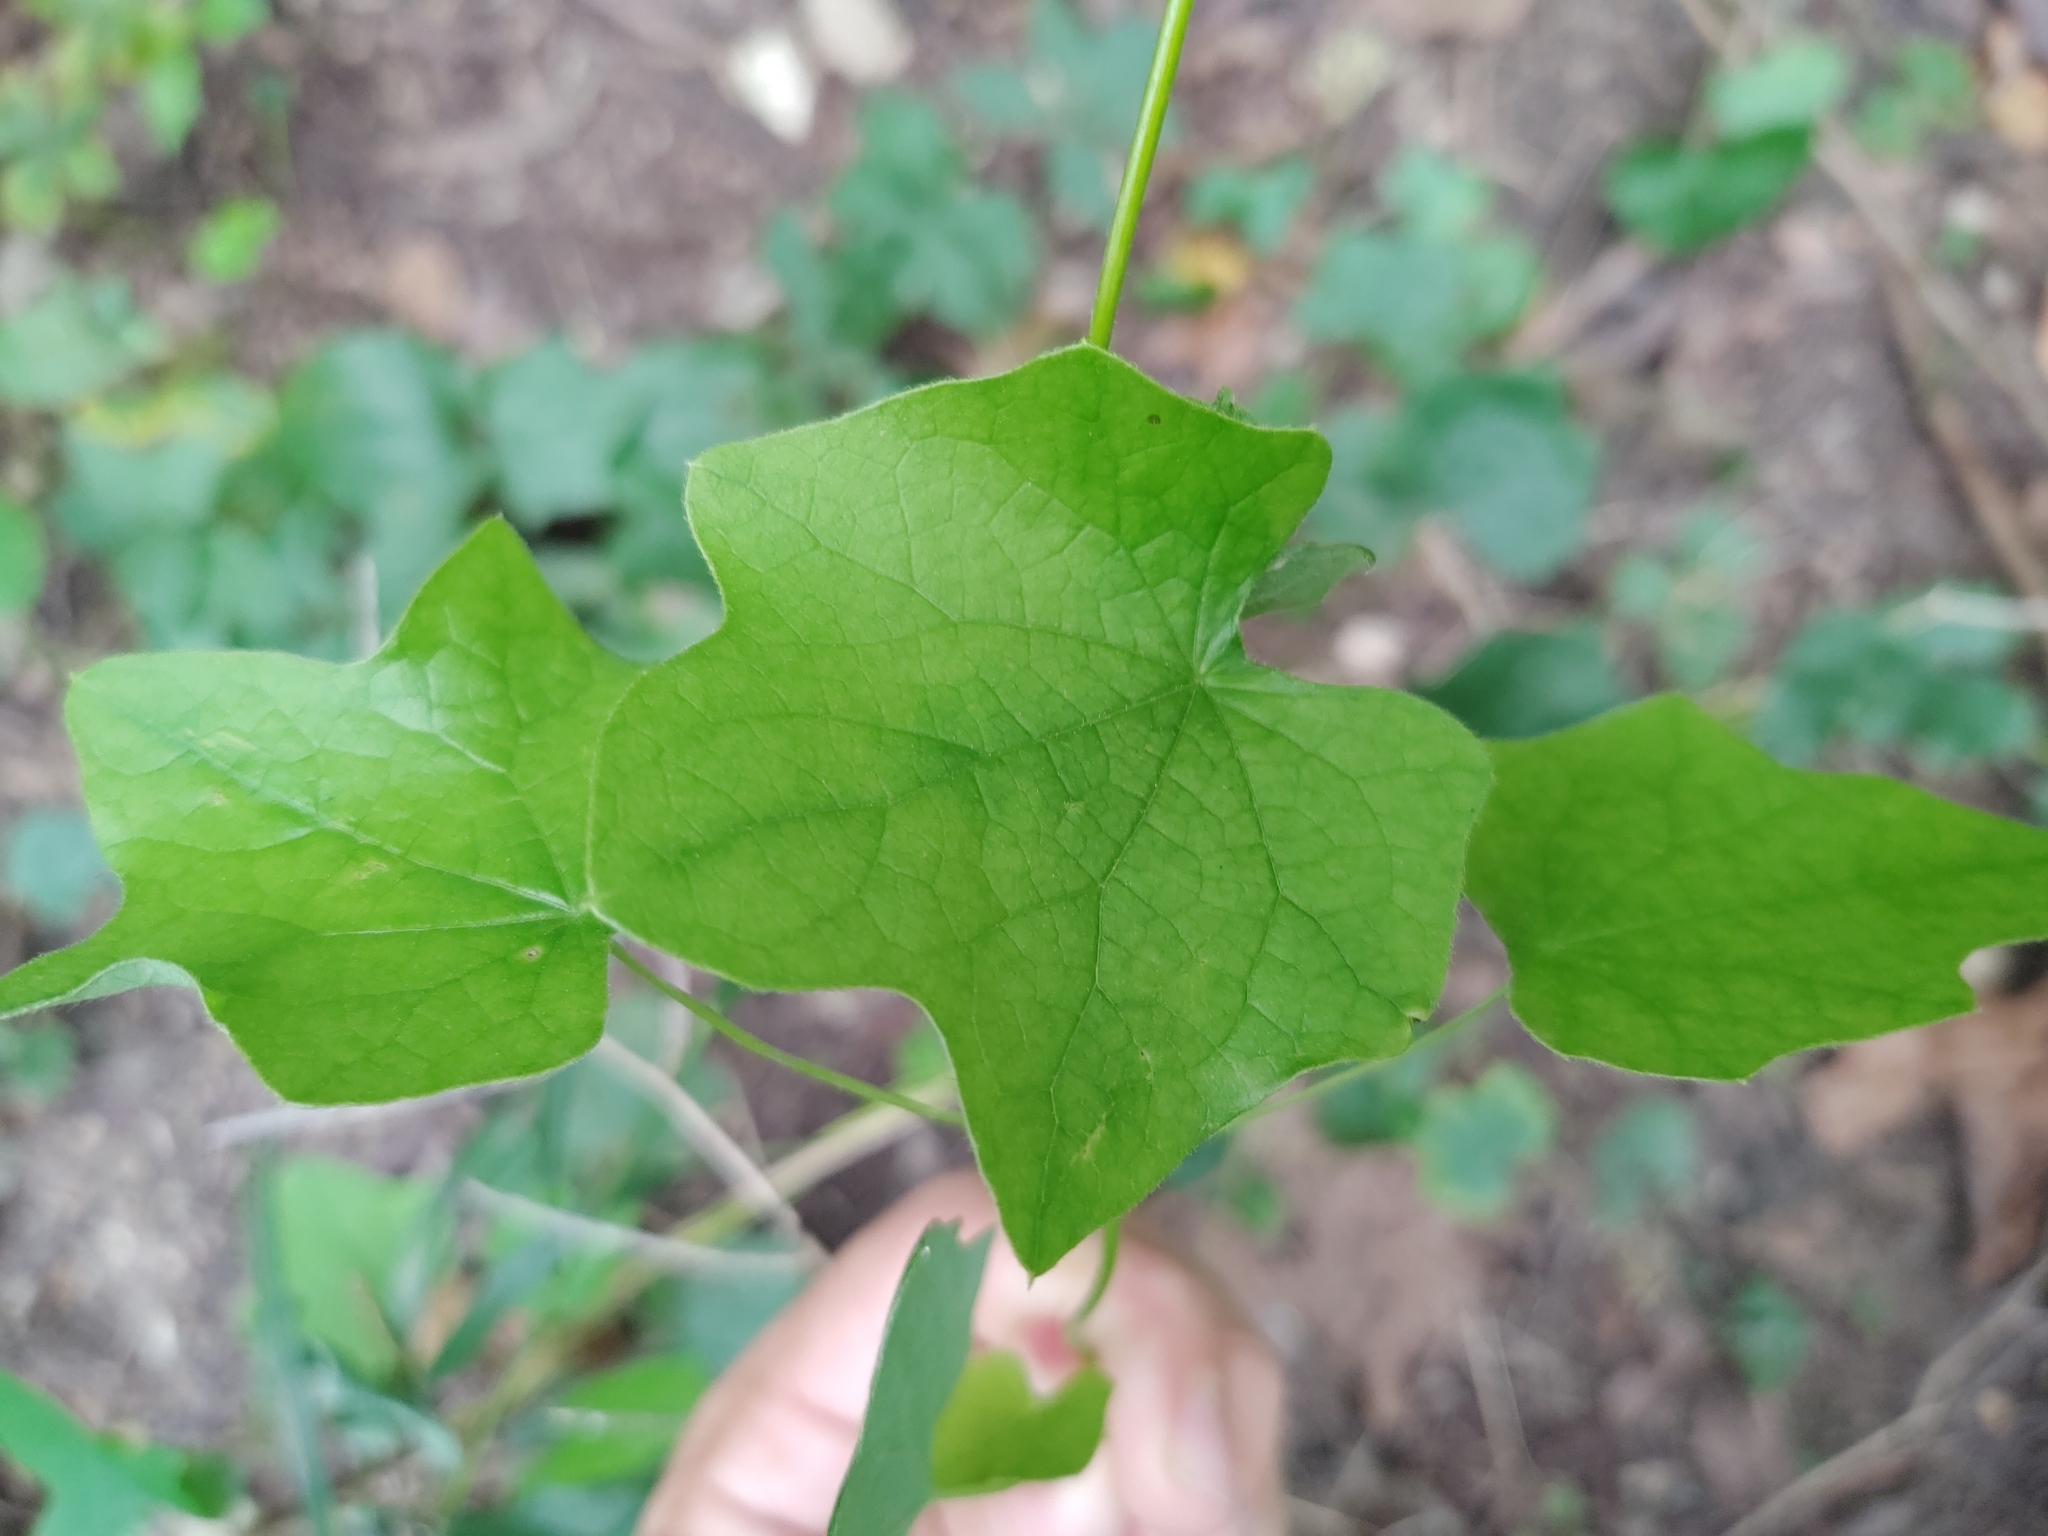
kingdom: Plantae
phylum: Tracheophyta
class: Magnoliopsida
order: Ranunculales
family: Menispermaceae
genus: Menispermum
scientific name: Menispermum canadense
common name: Moonseed
